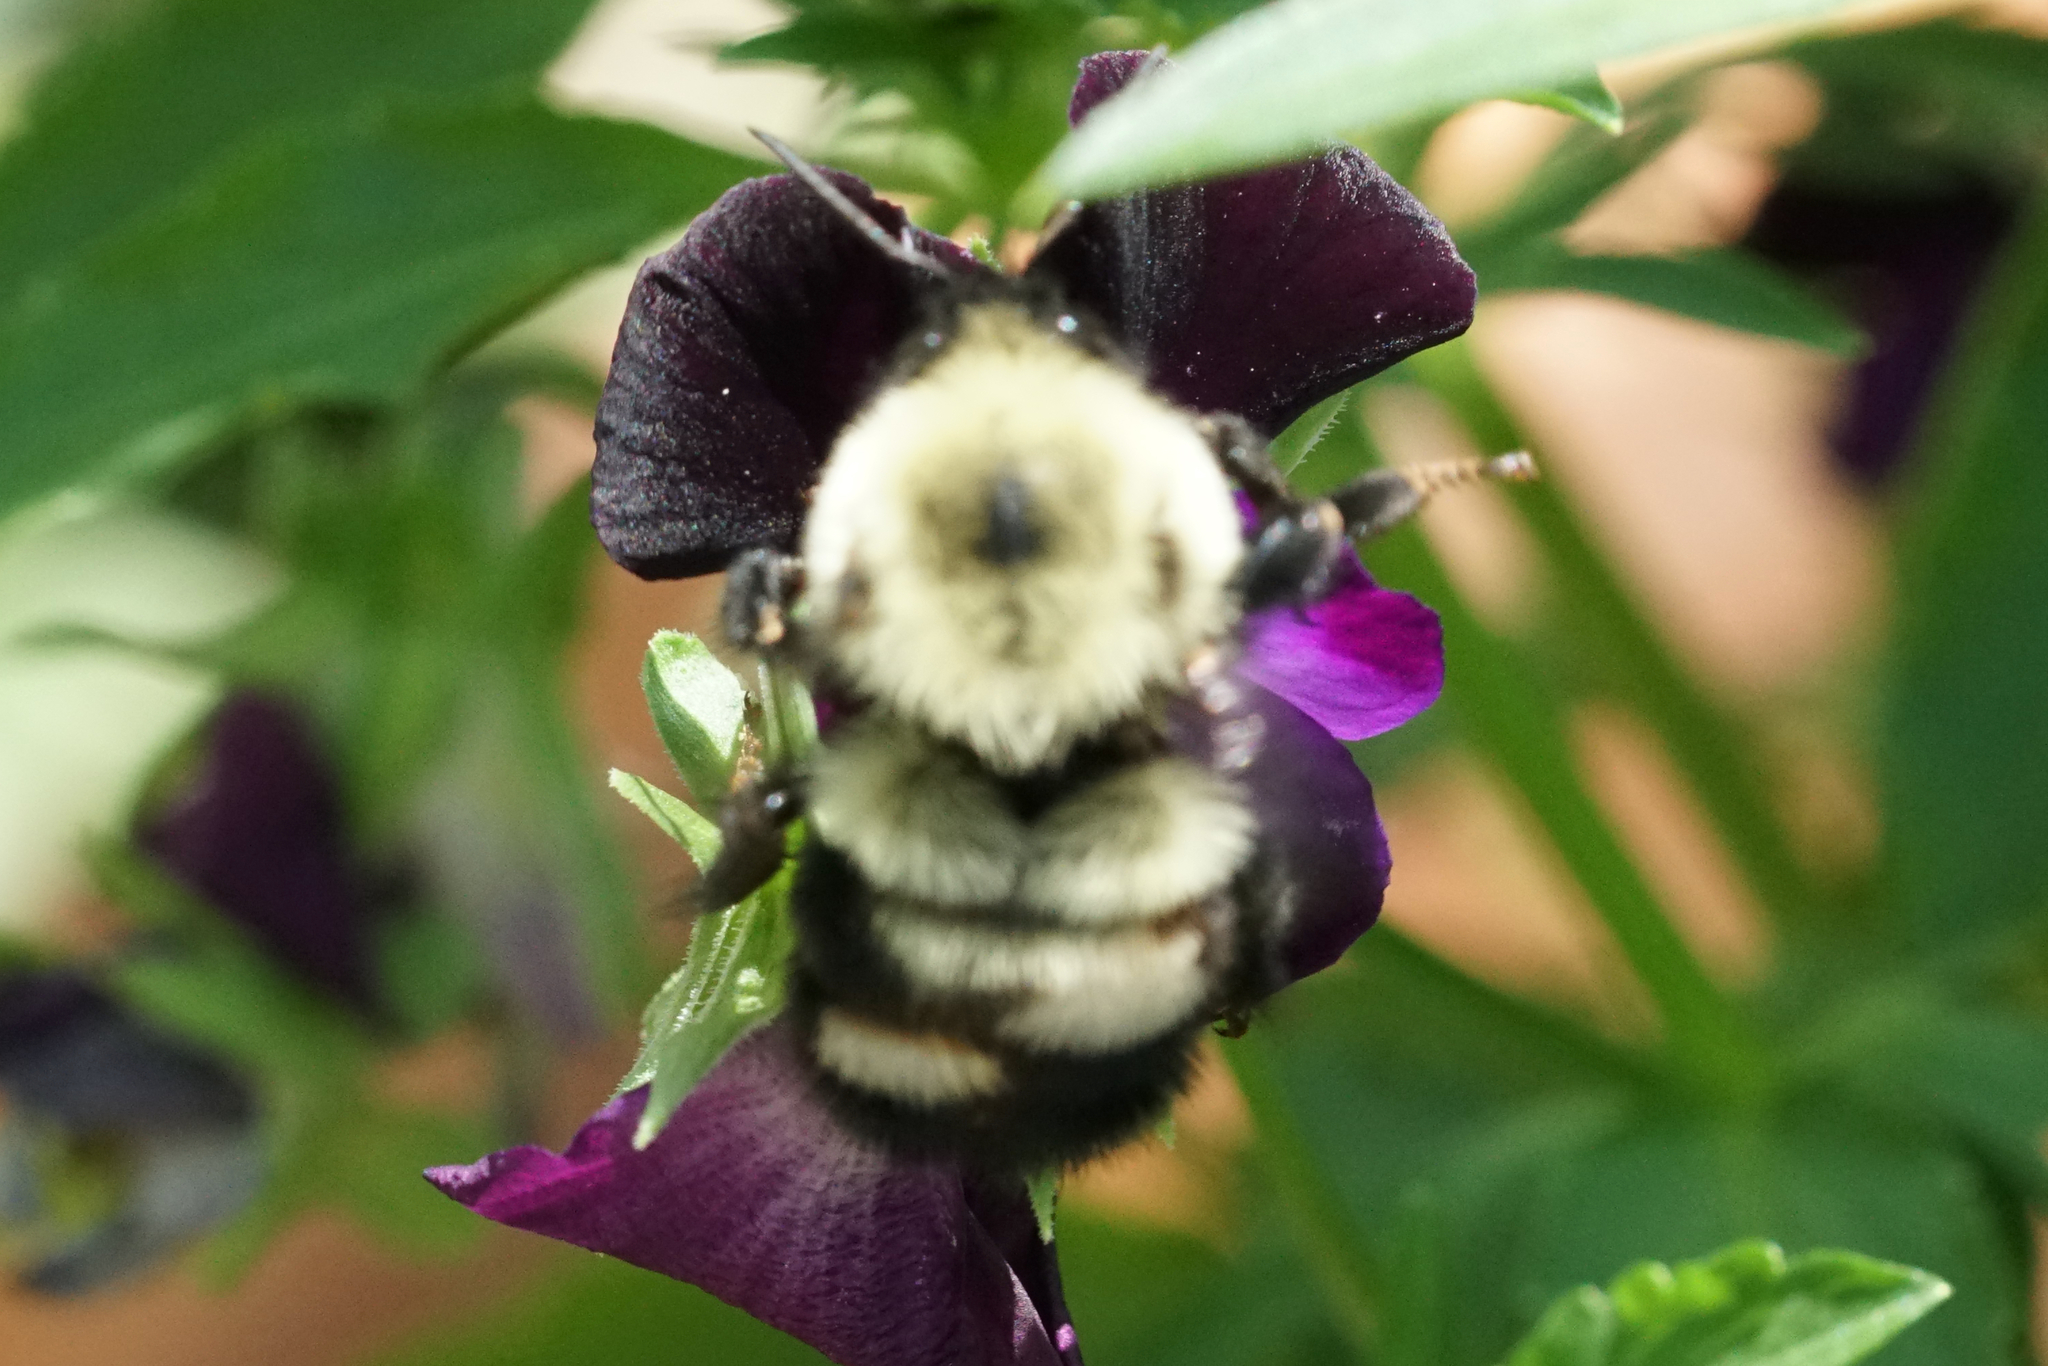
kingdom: Animalia
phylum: Arthropoda
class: Insecta
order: Hymenoptera
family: Apidae
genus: Bombus
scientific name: Bombus bimaculatus
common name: Two-spotted bumble bee
